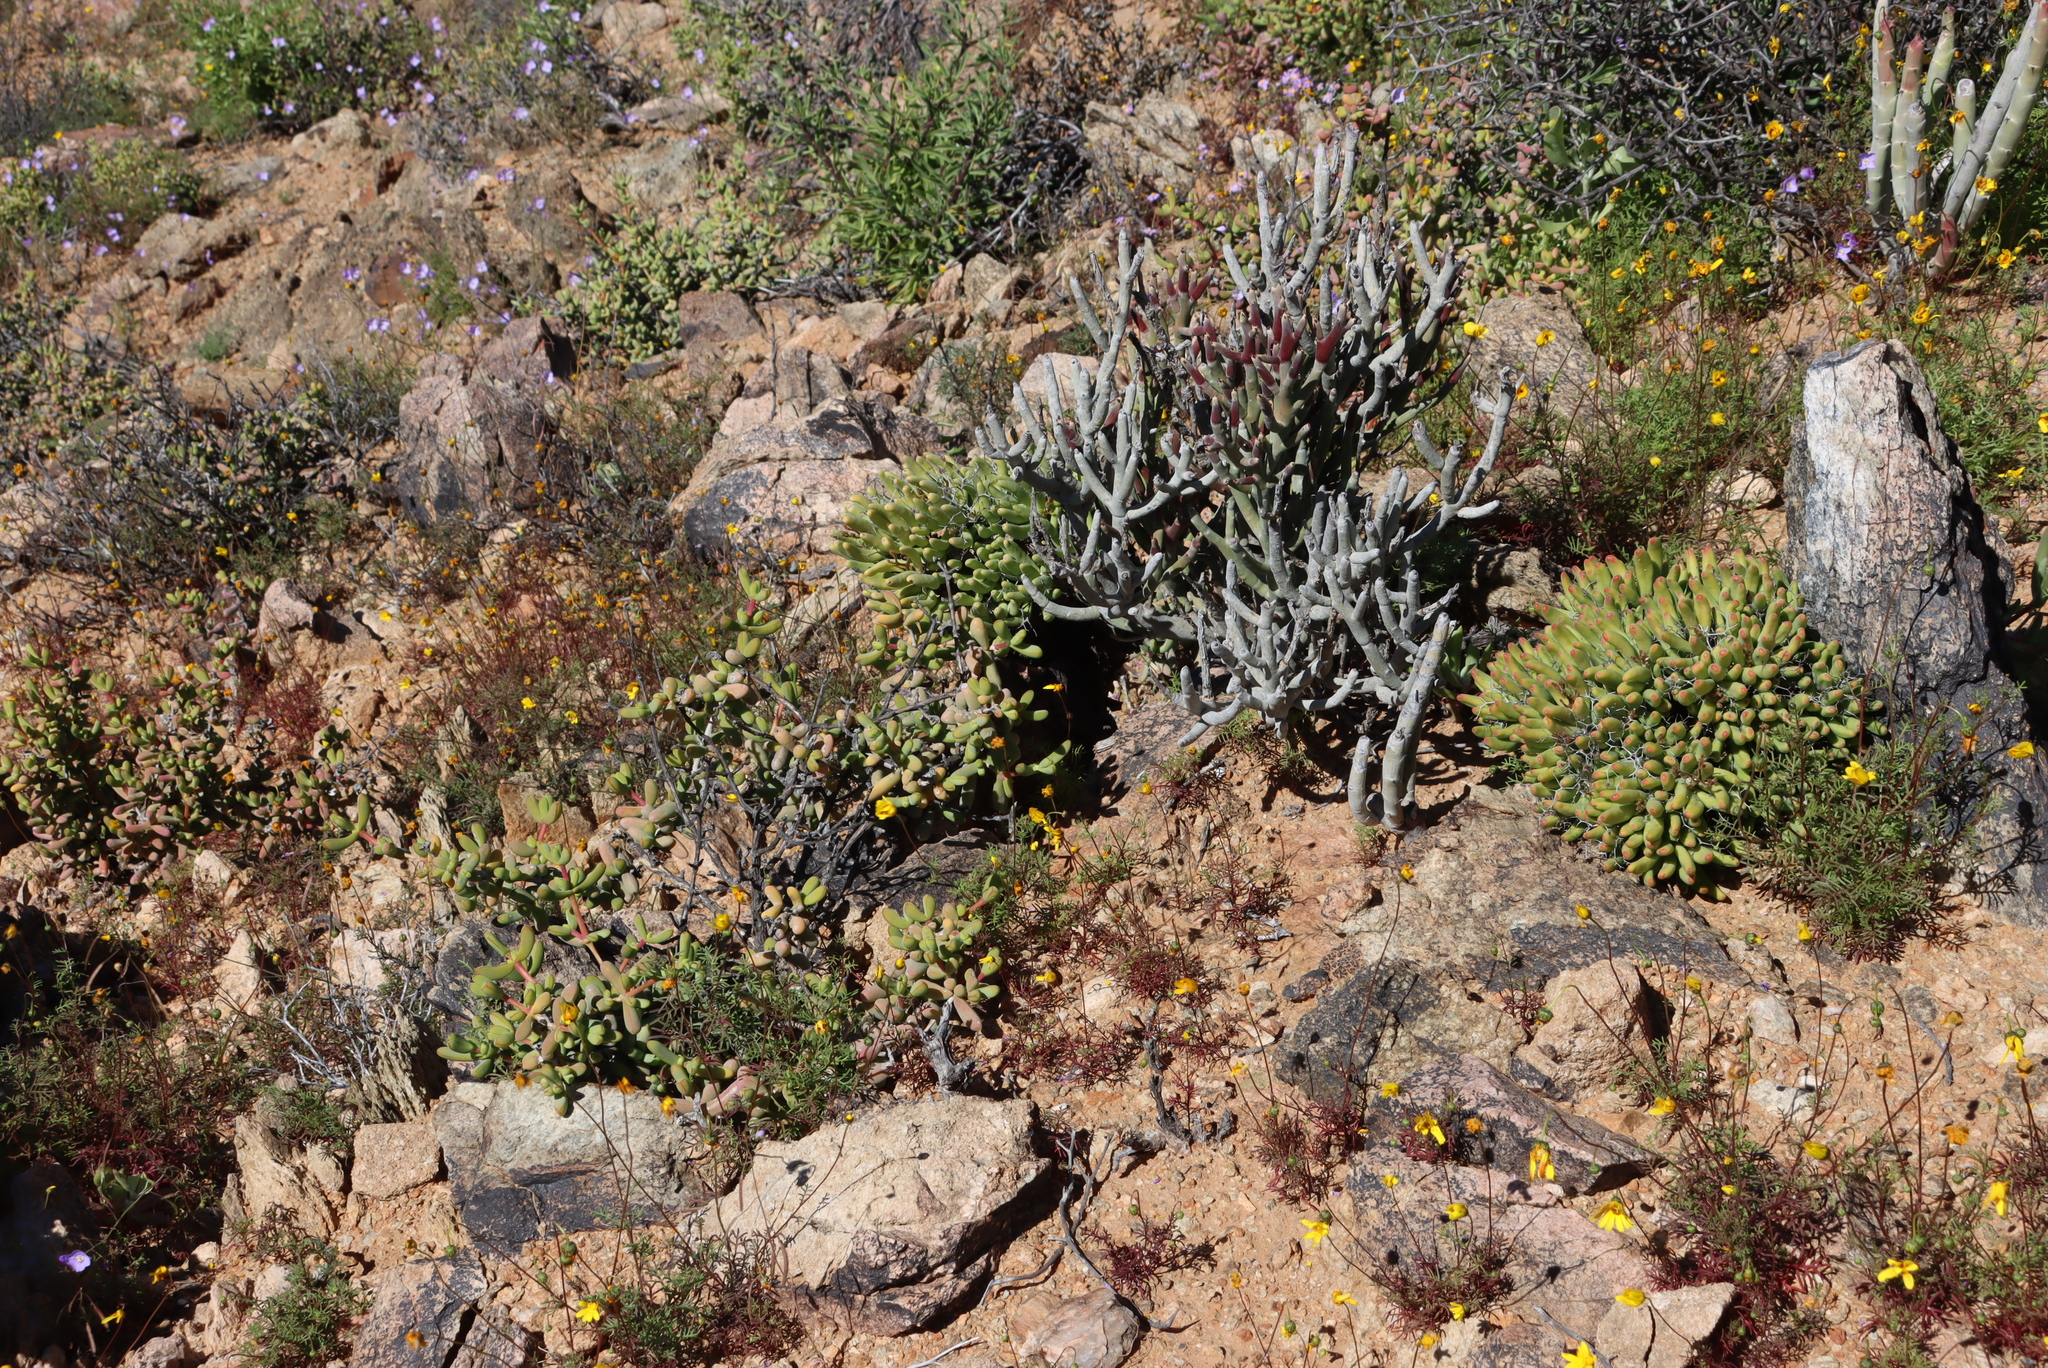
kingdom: Plantae
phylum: Tracheophyta
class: Magnoliopsida
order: Saxifragales
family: Crassulaceae
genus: Tylecodon
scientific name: Tylecodon reticulatus
